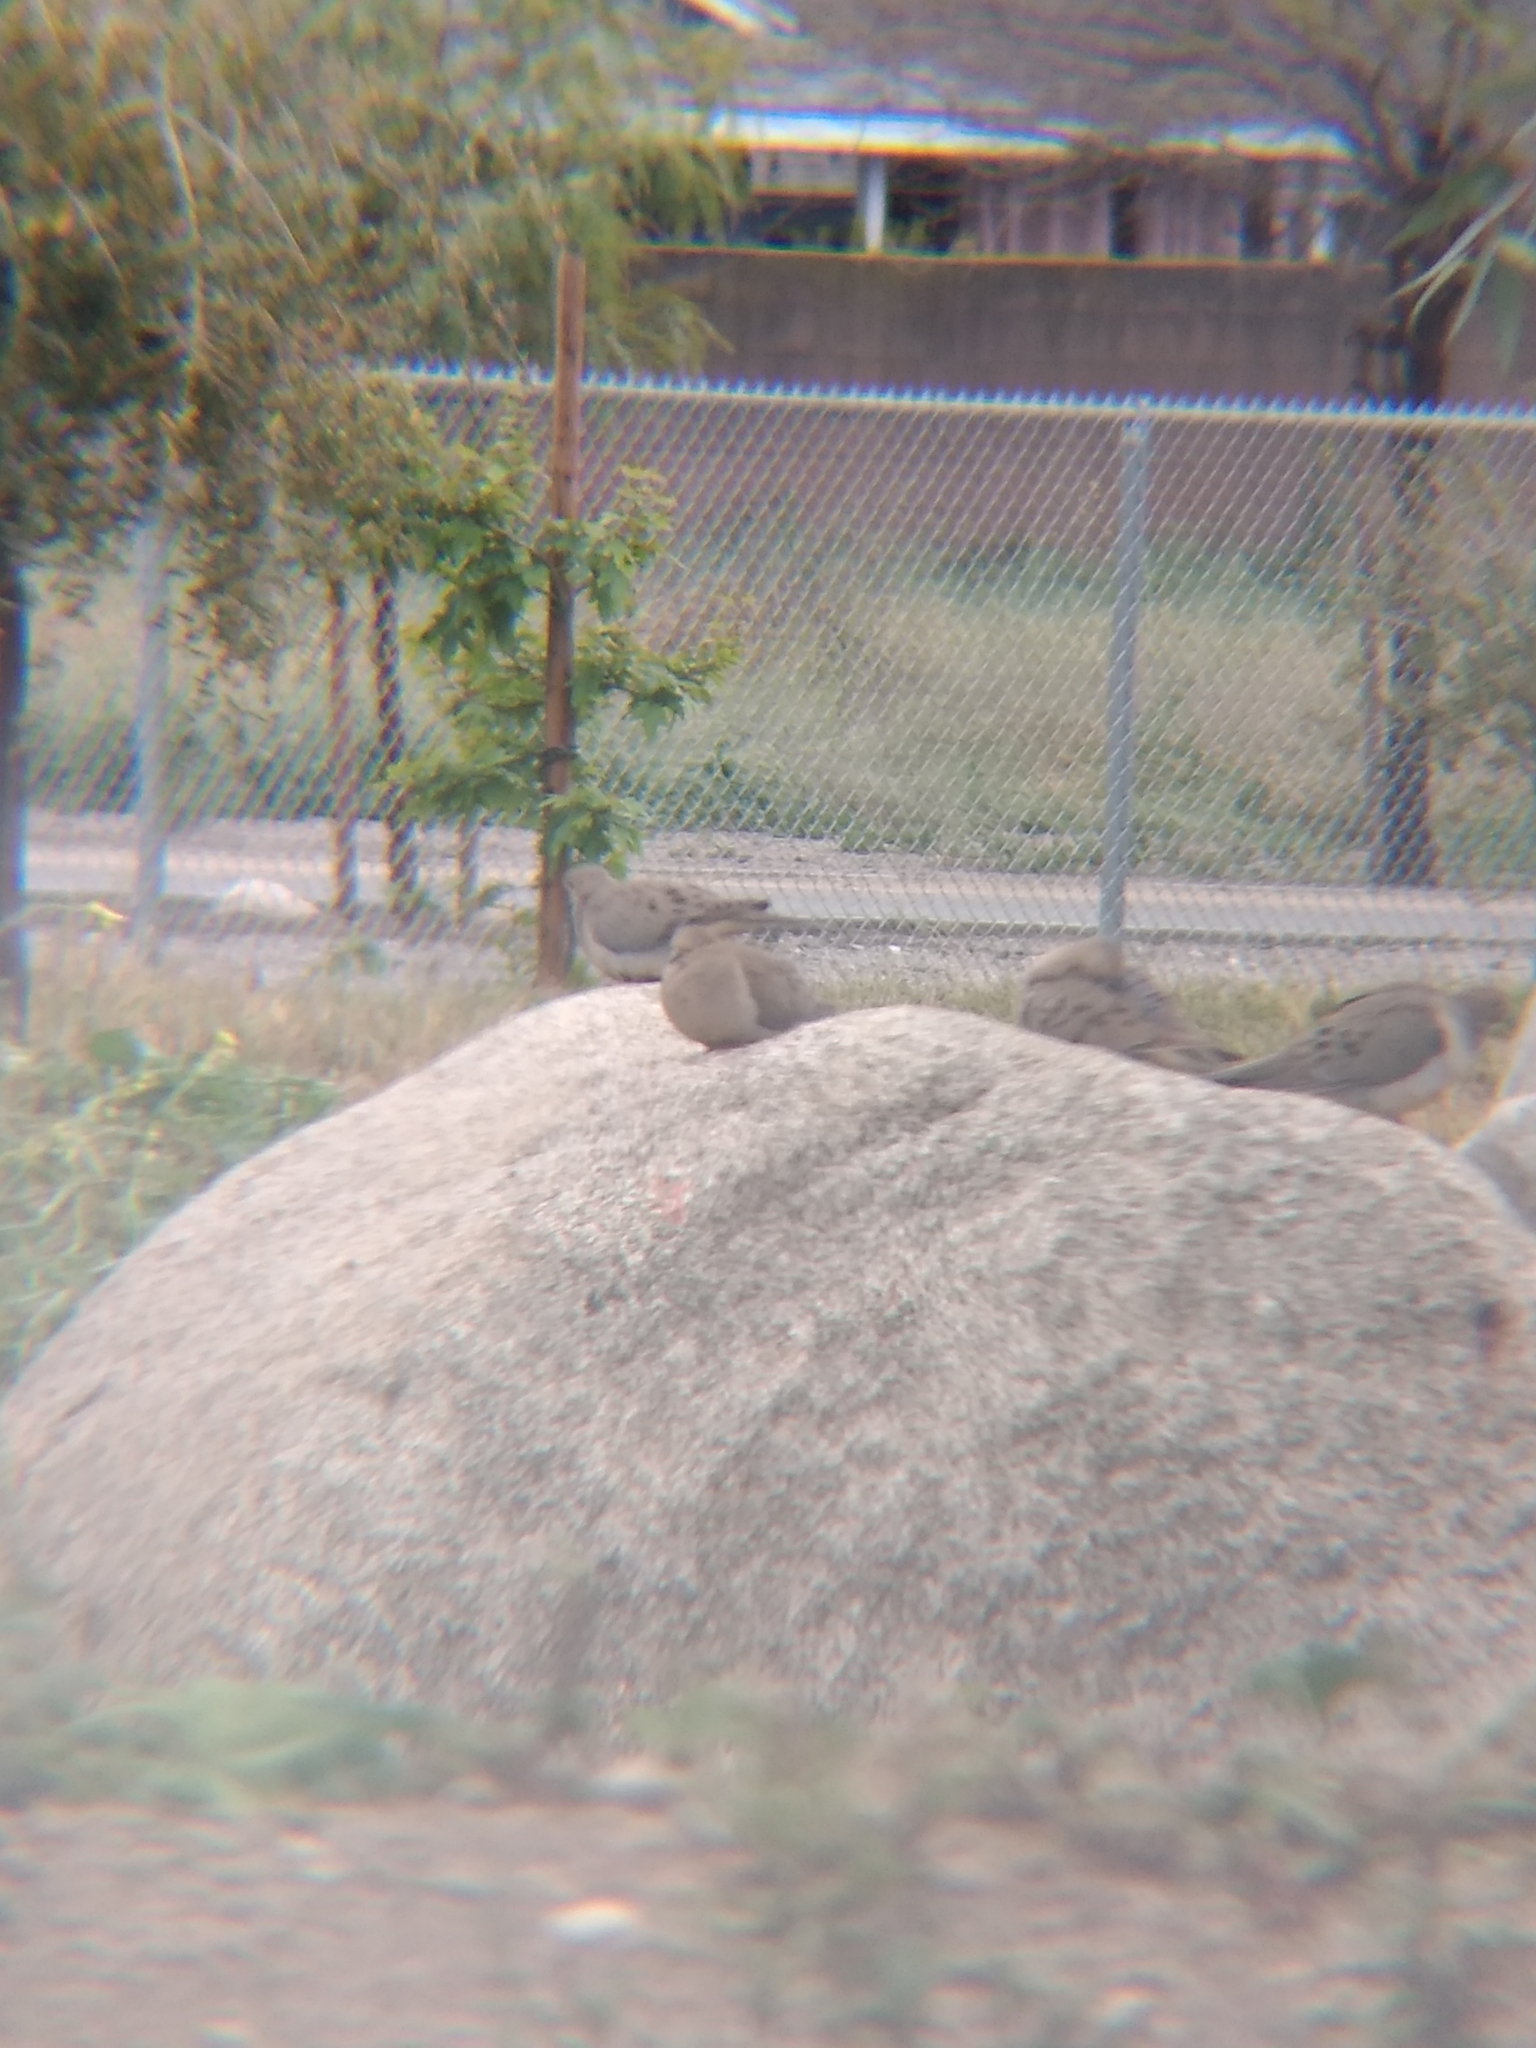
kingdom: Animalia
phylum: Chordata
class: Aves
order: Columbiformes
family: Columbidae
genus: Zenaida
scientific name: Zenaida macroura
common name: Mourning dove
